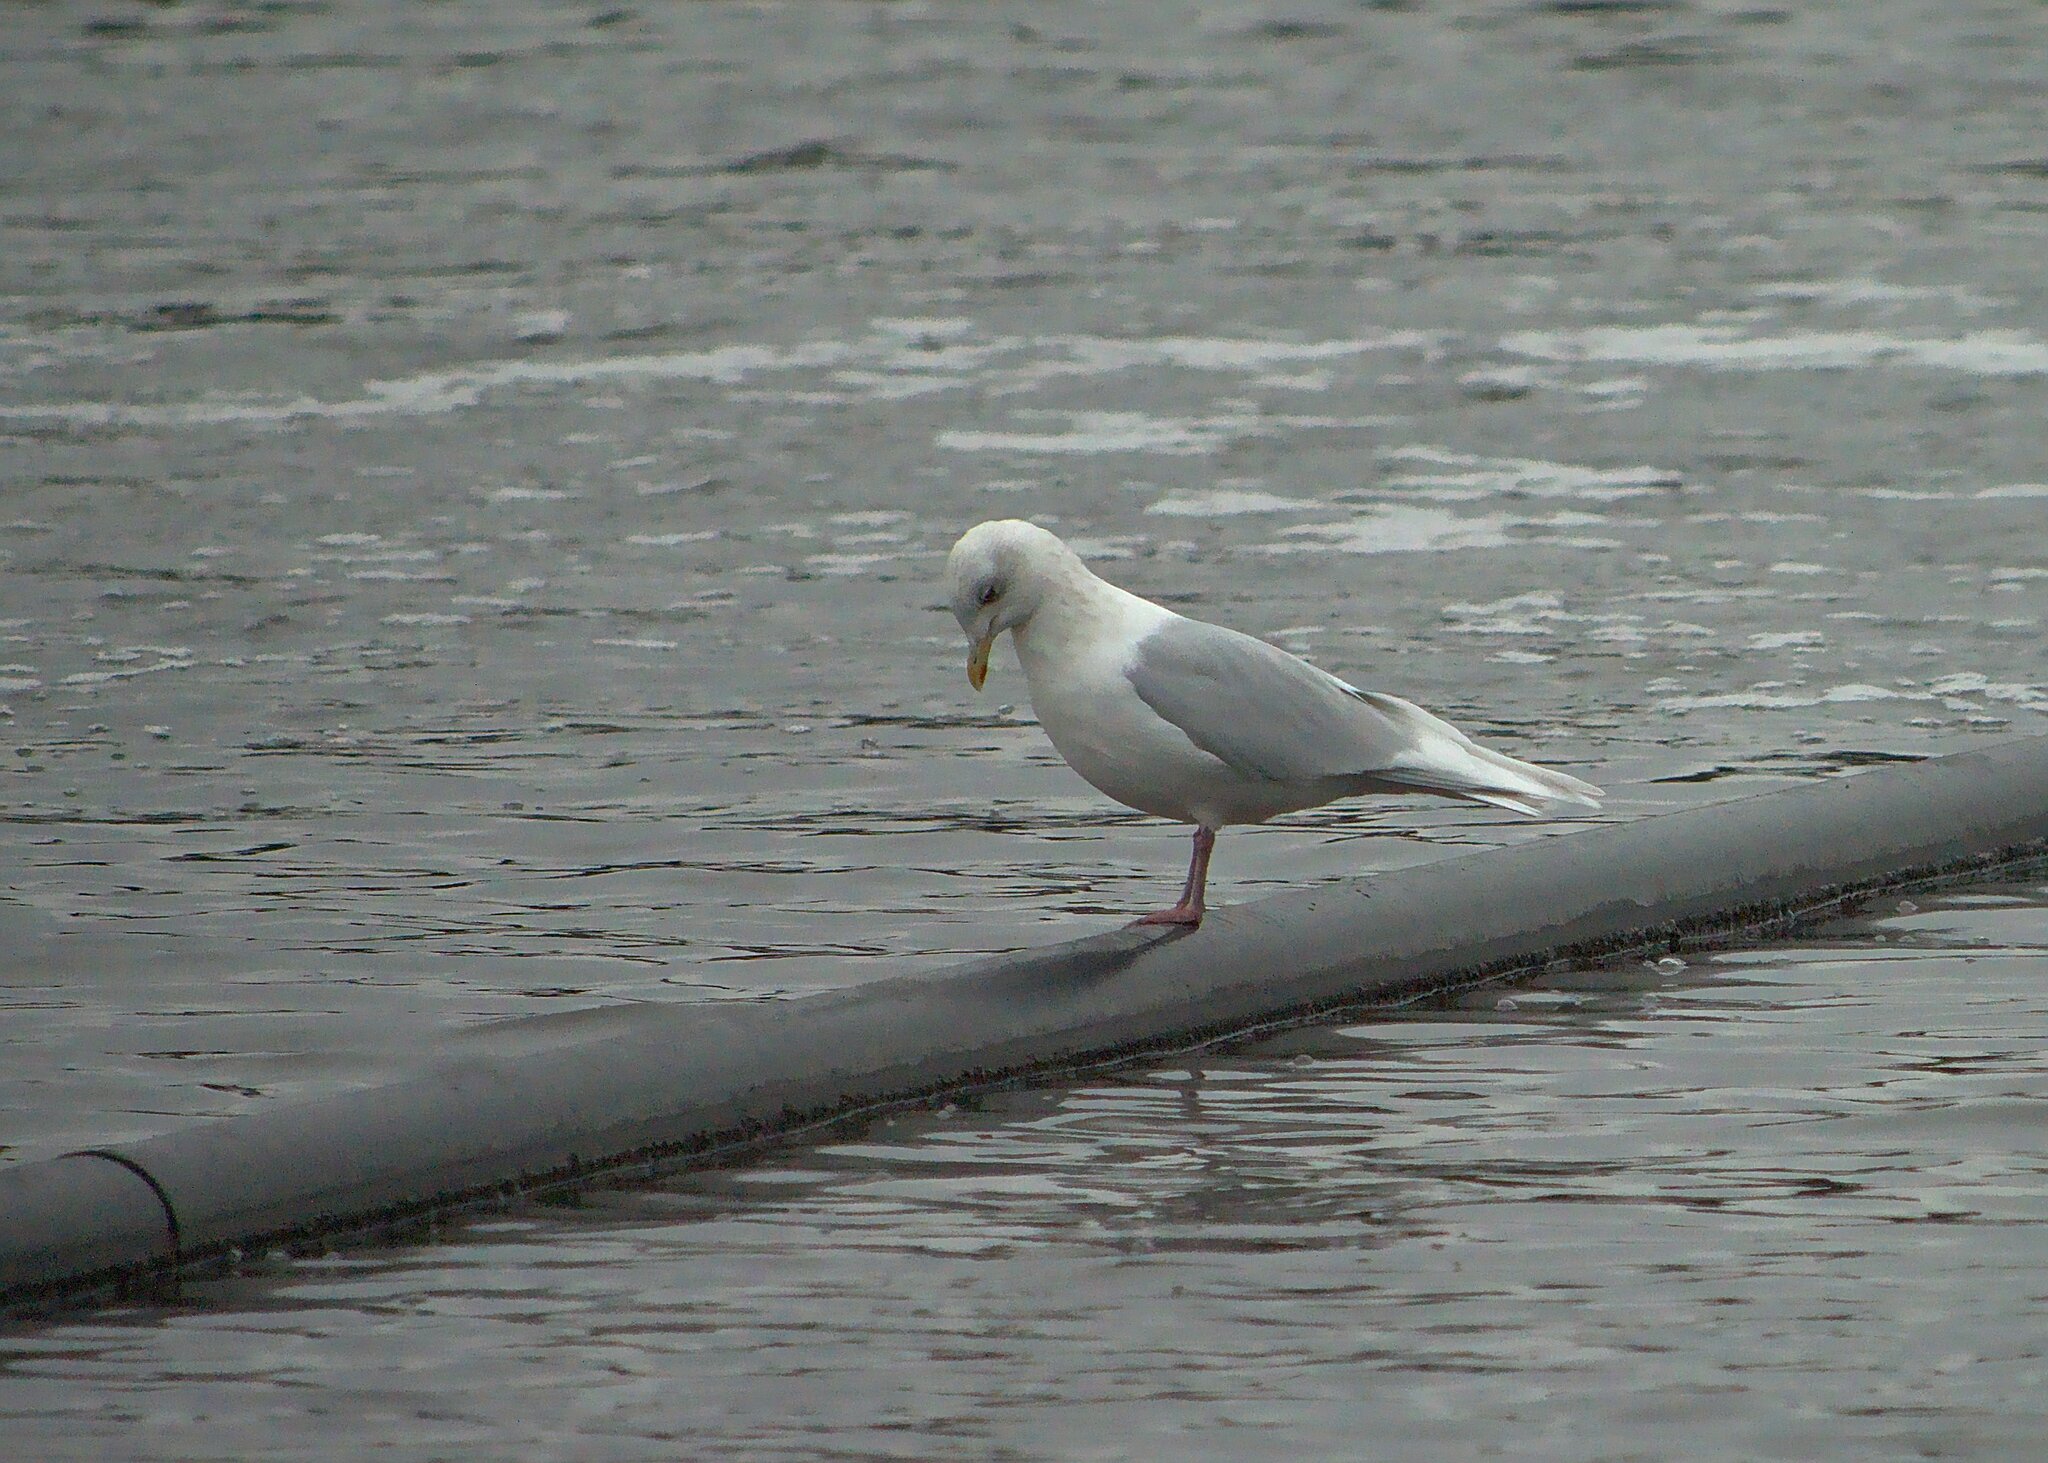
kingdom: Animalia
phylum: Chordata
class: Aves
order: Charadriiformes
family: Laridae
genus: Larus
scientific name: Larus glaucoides
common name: Iceland gull
